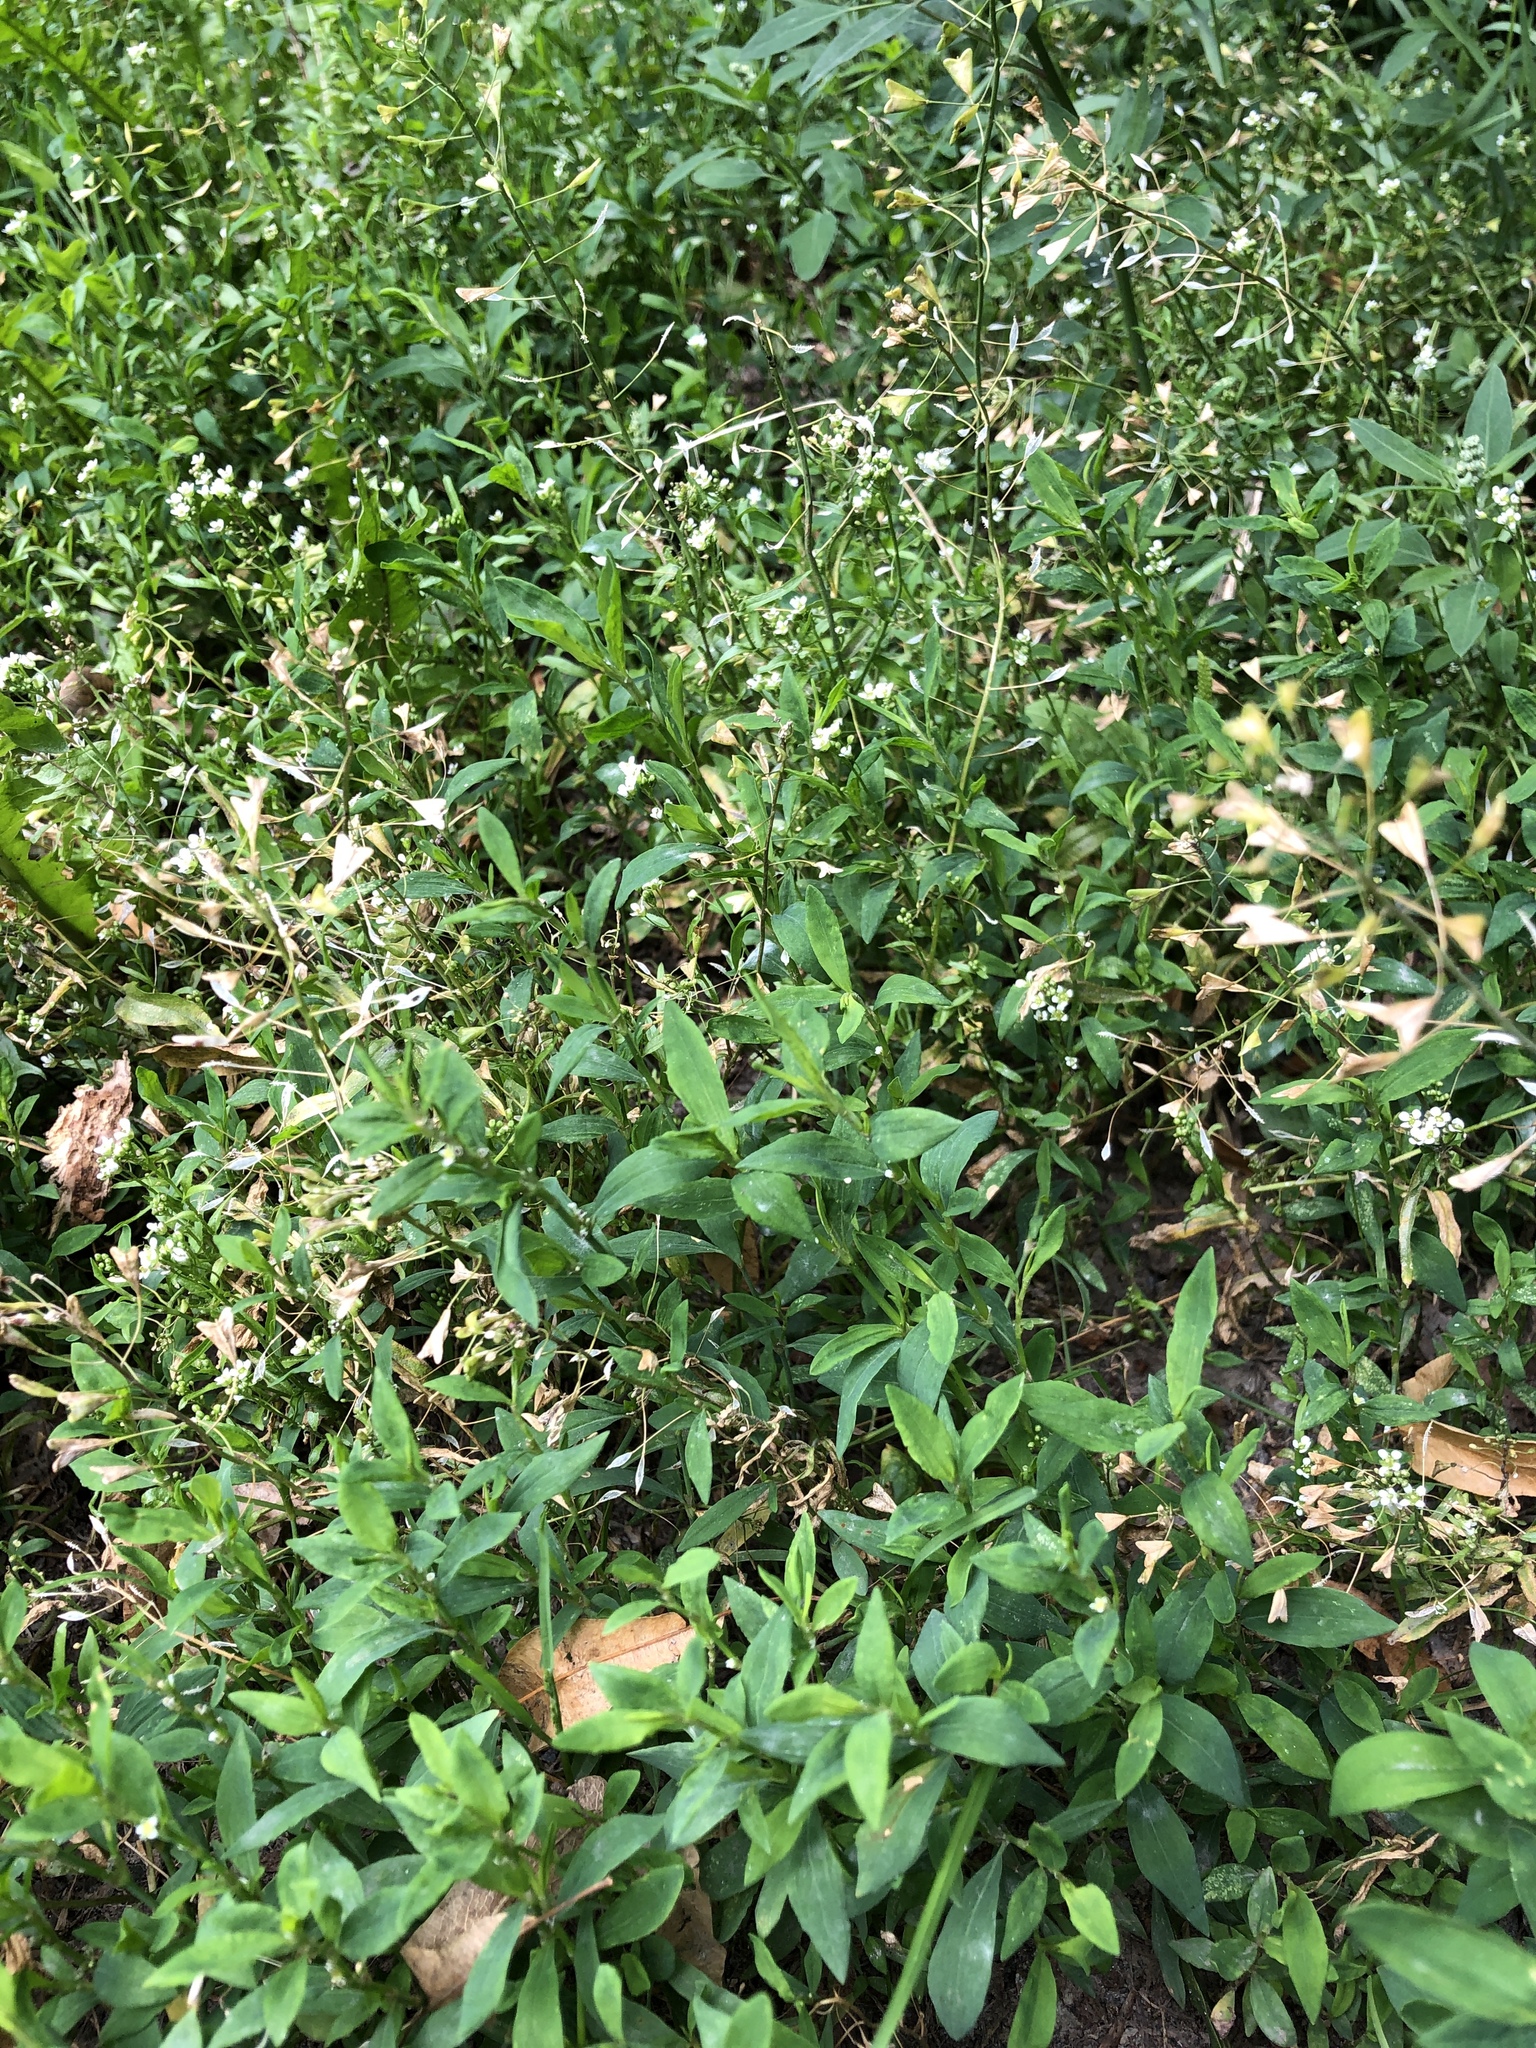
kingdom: Plantae
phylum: Tracheophyta
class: Magnoliopsida
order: Brassicales
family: Brassicaceae
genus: Capsella
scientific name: Capsella bursa-pastoris
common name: Shepherd's purse
